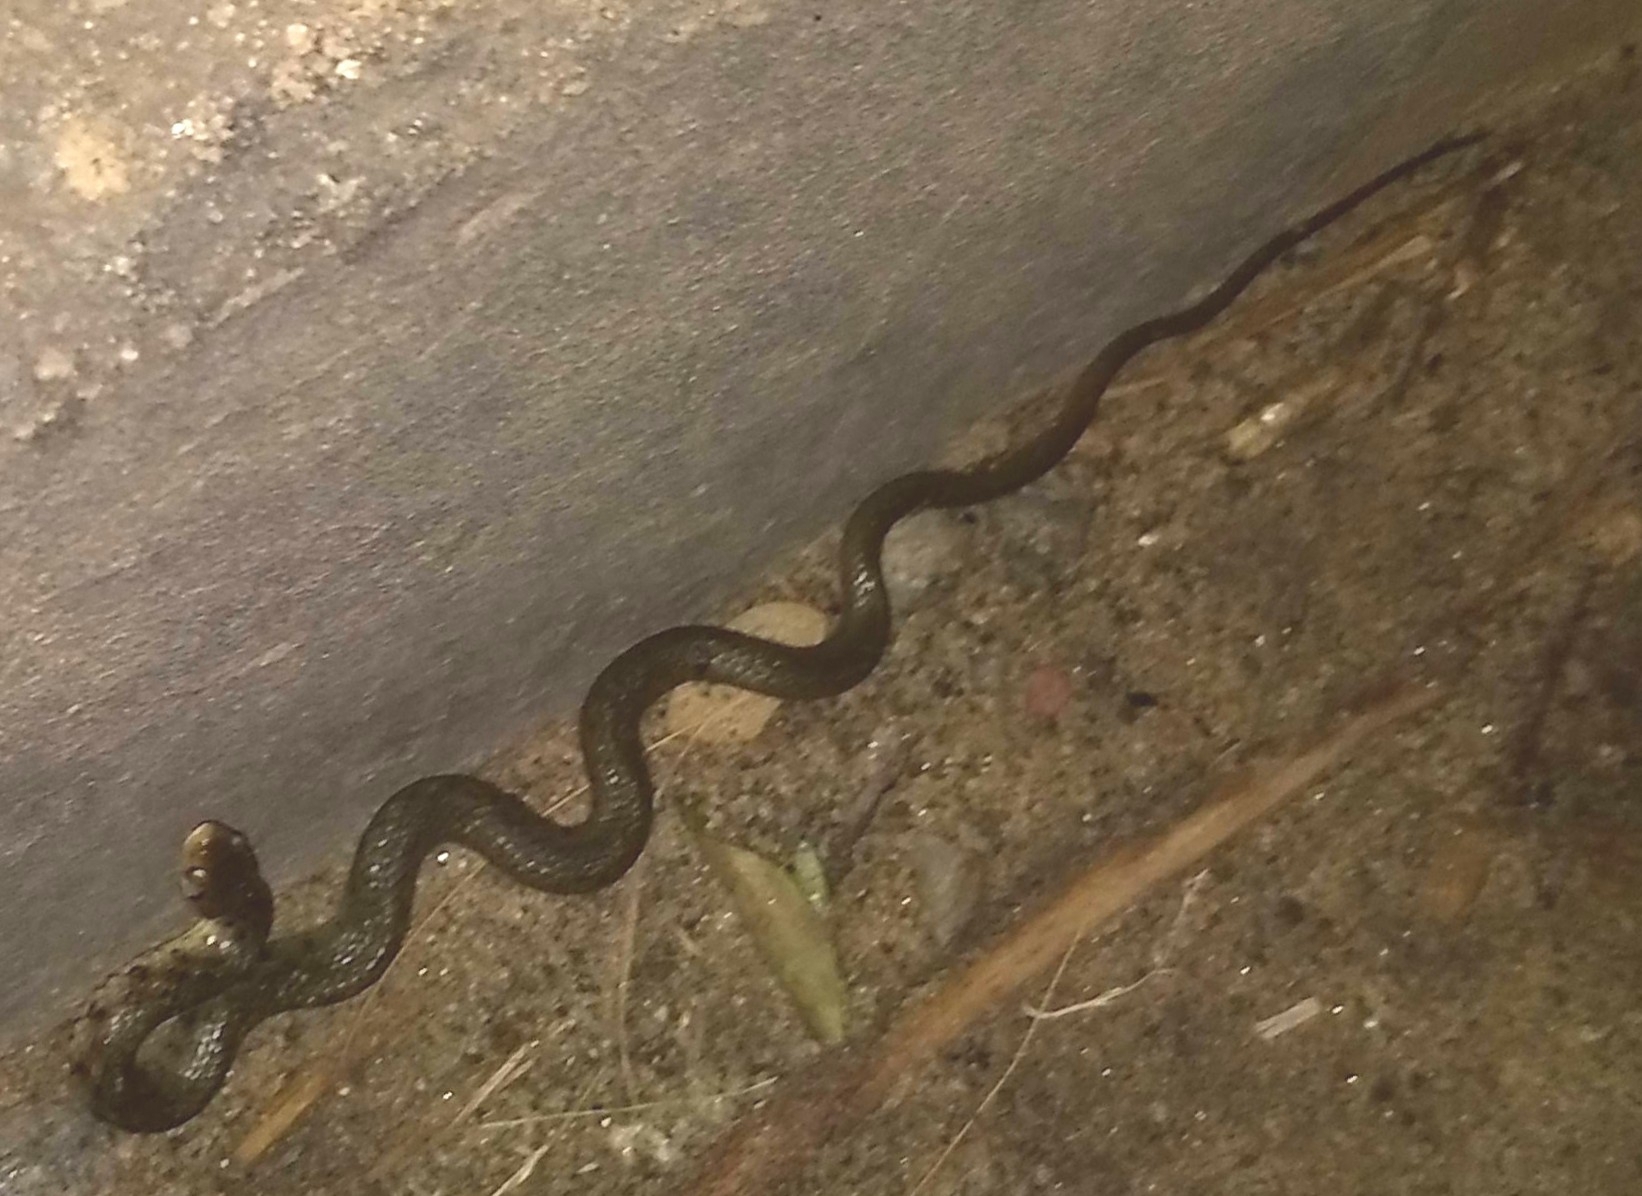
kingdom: Animalia
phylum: Chordata
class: Squamata
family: Colubridae
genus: Fowlea
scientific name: Fowlea piscator
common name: Asiatic water snake
